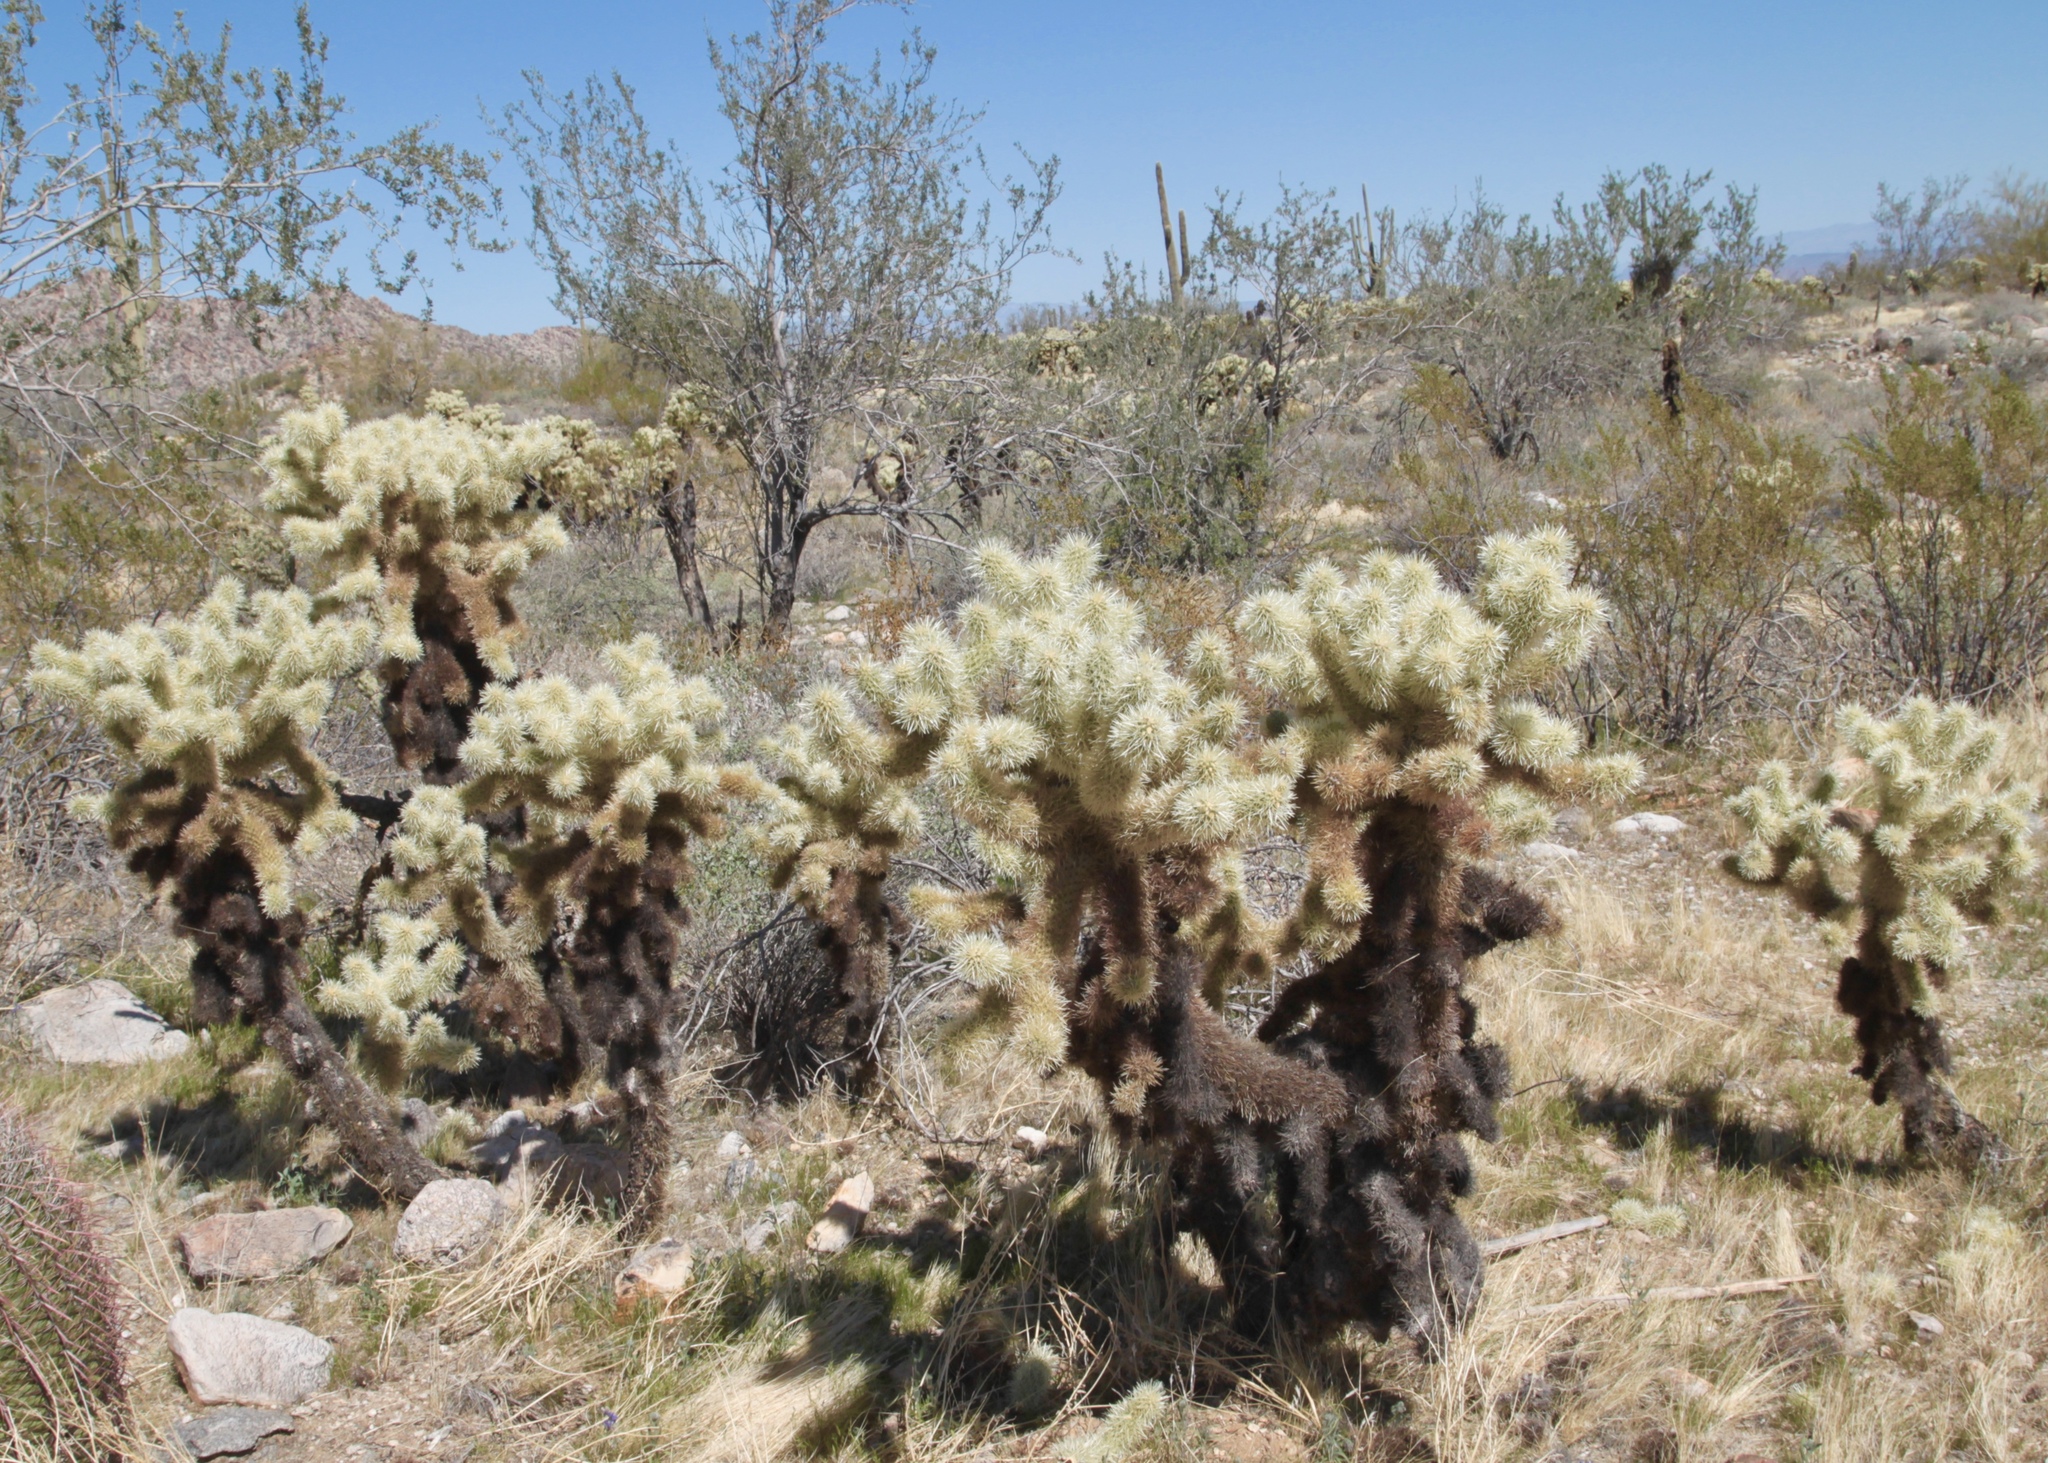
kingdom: Plantae
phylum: Tracheophyta
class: Magnoliopsida
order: Caryophyllales
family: Cactaceae
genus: Cylindropuntia
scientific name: Cylindropuntia fosbergii
